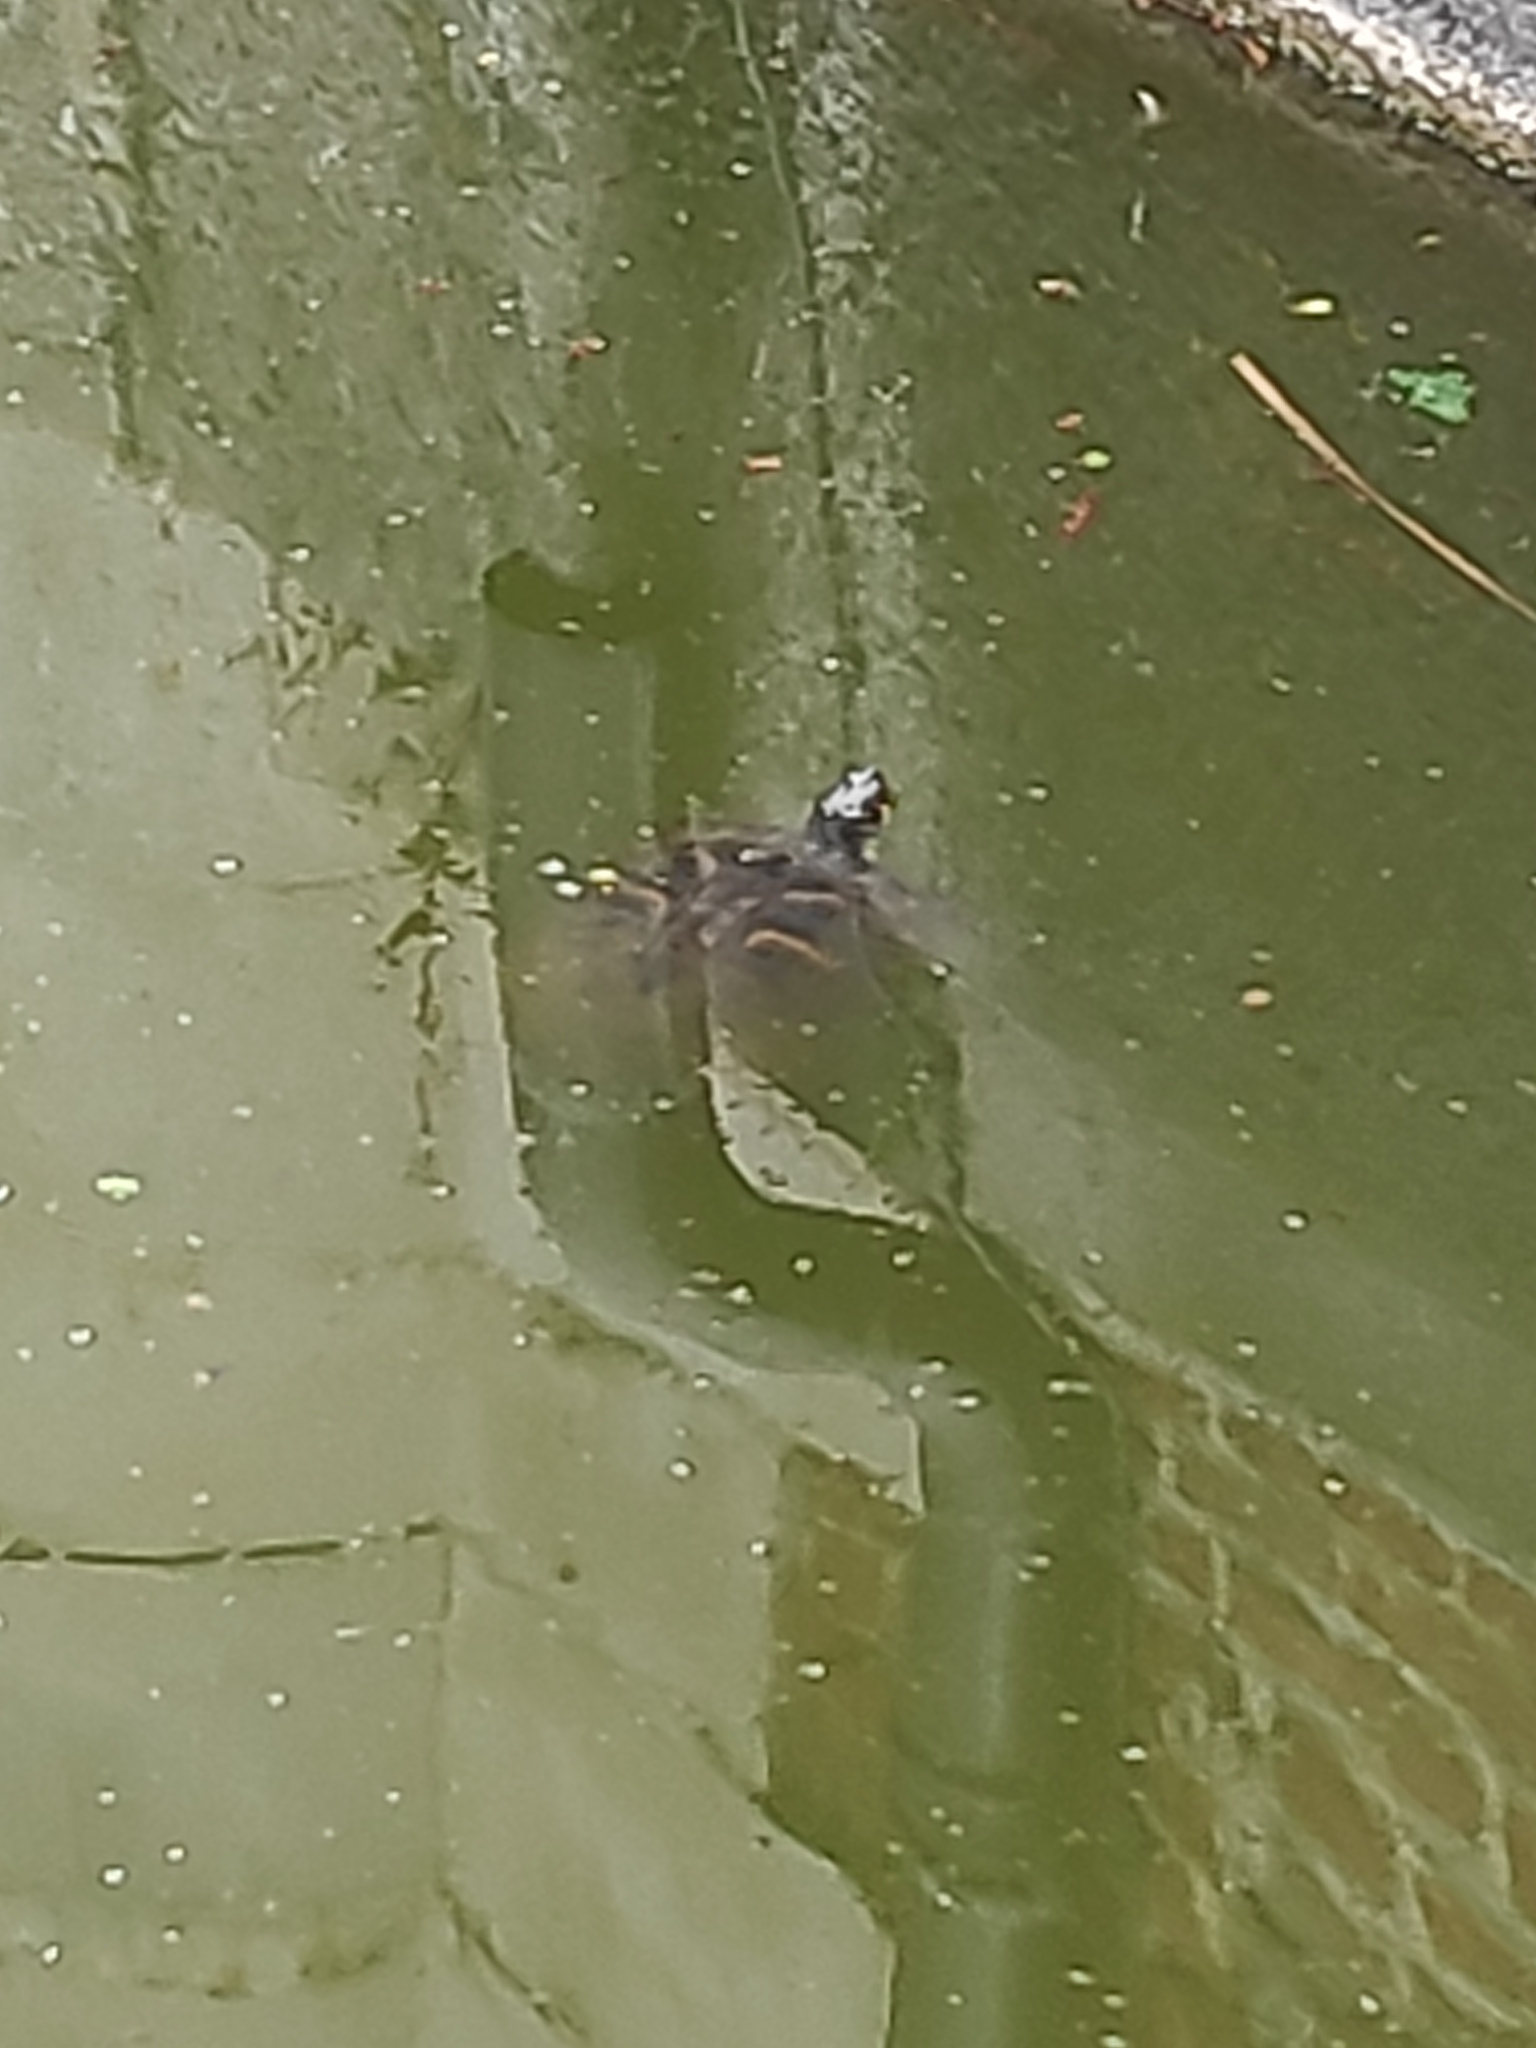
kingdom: Animalia
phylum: Chordata
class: Testudines
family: Emydidae
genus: Trachemys
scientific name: Trachemys scripta
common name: Slider
